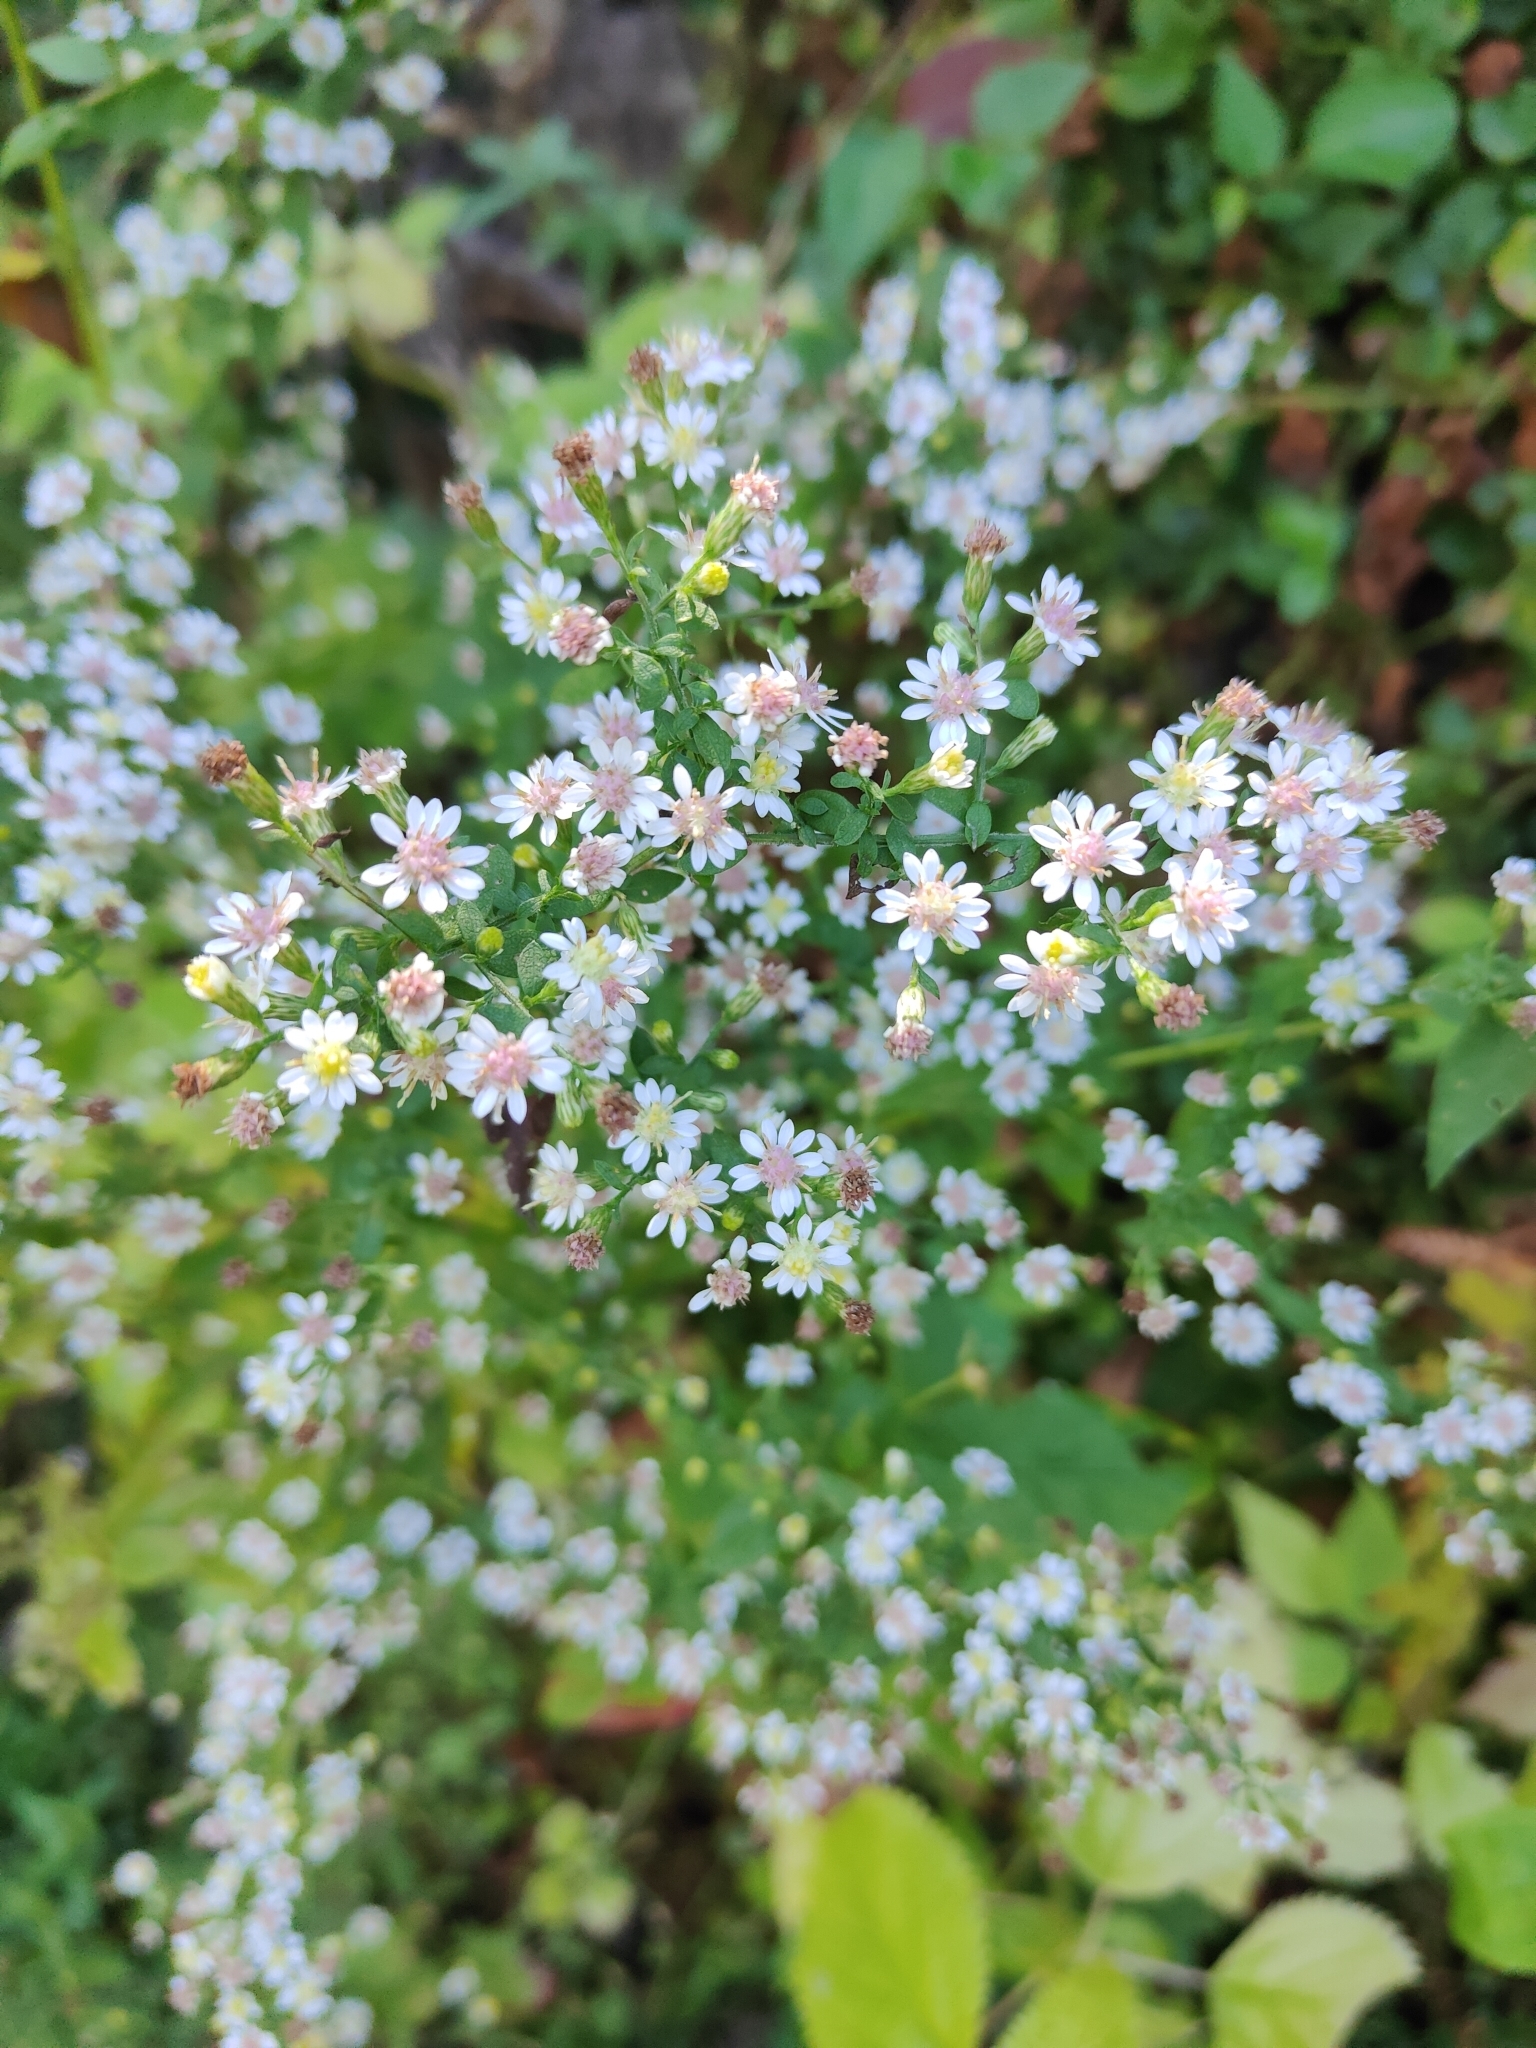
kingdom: Plantae
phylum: Tracheophyta
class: Magnoliopsida
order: Asterales
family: Asteraceae
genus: Symphyotrichum
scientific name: Symphyotrichum lateriflorum
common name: Calico aster
